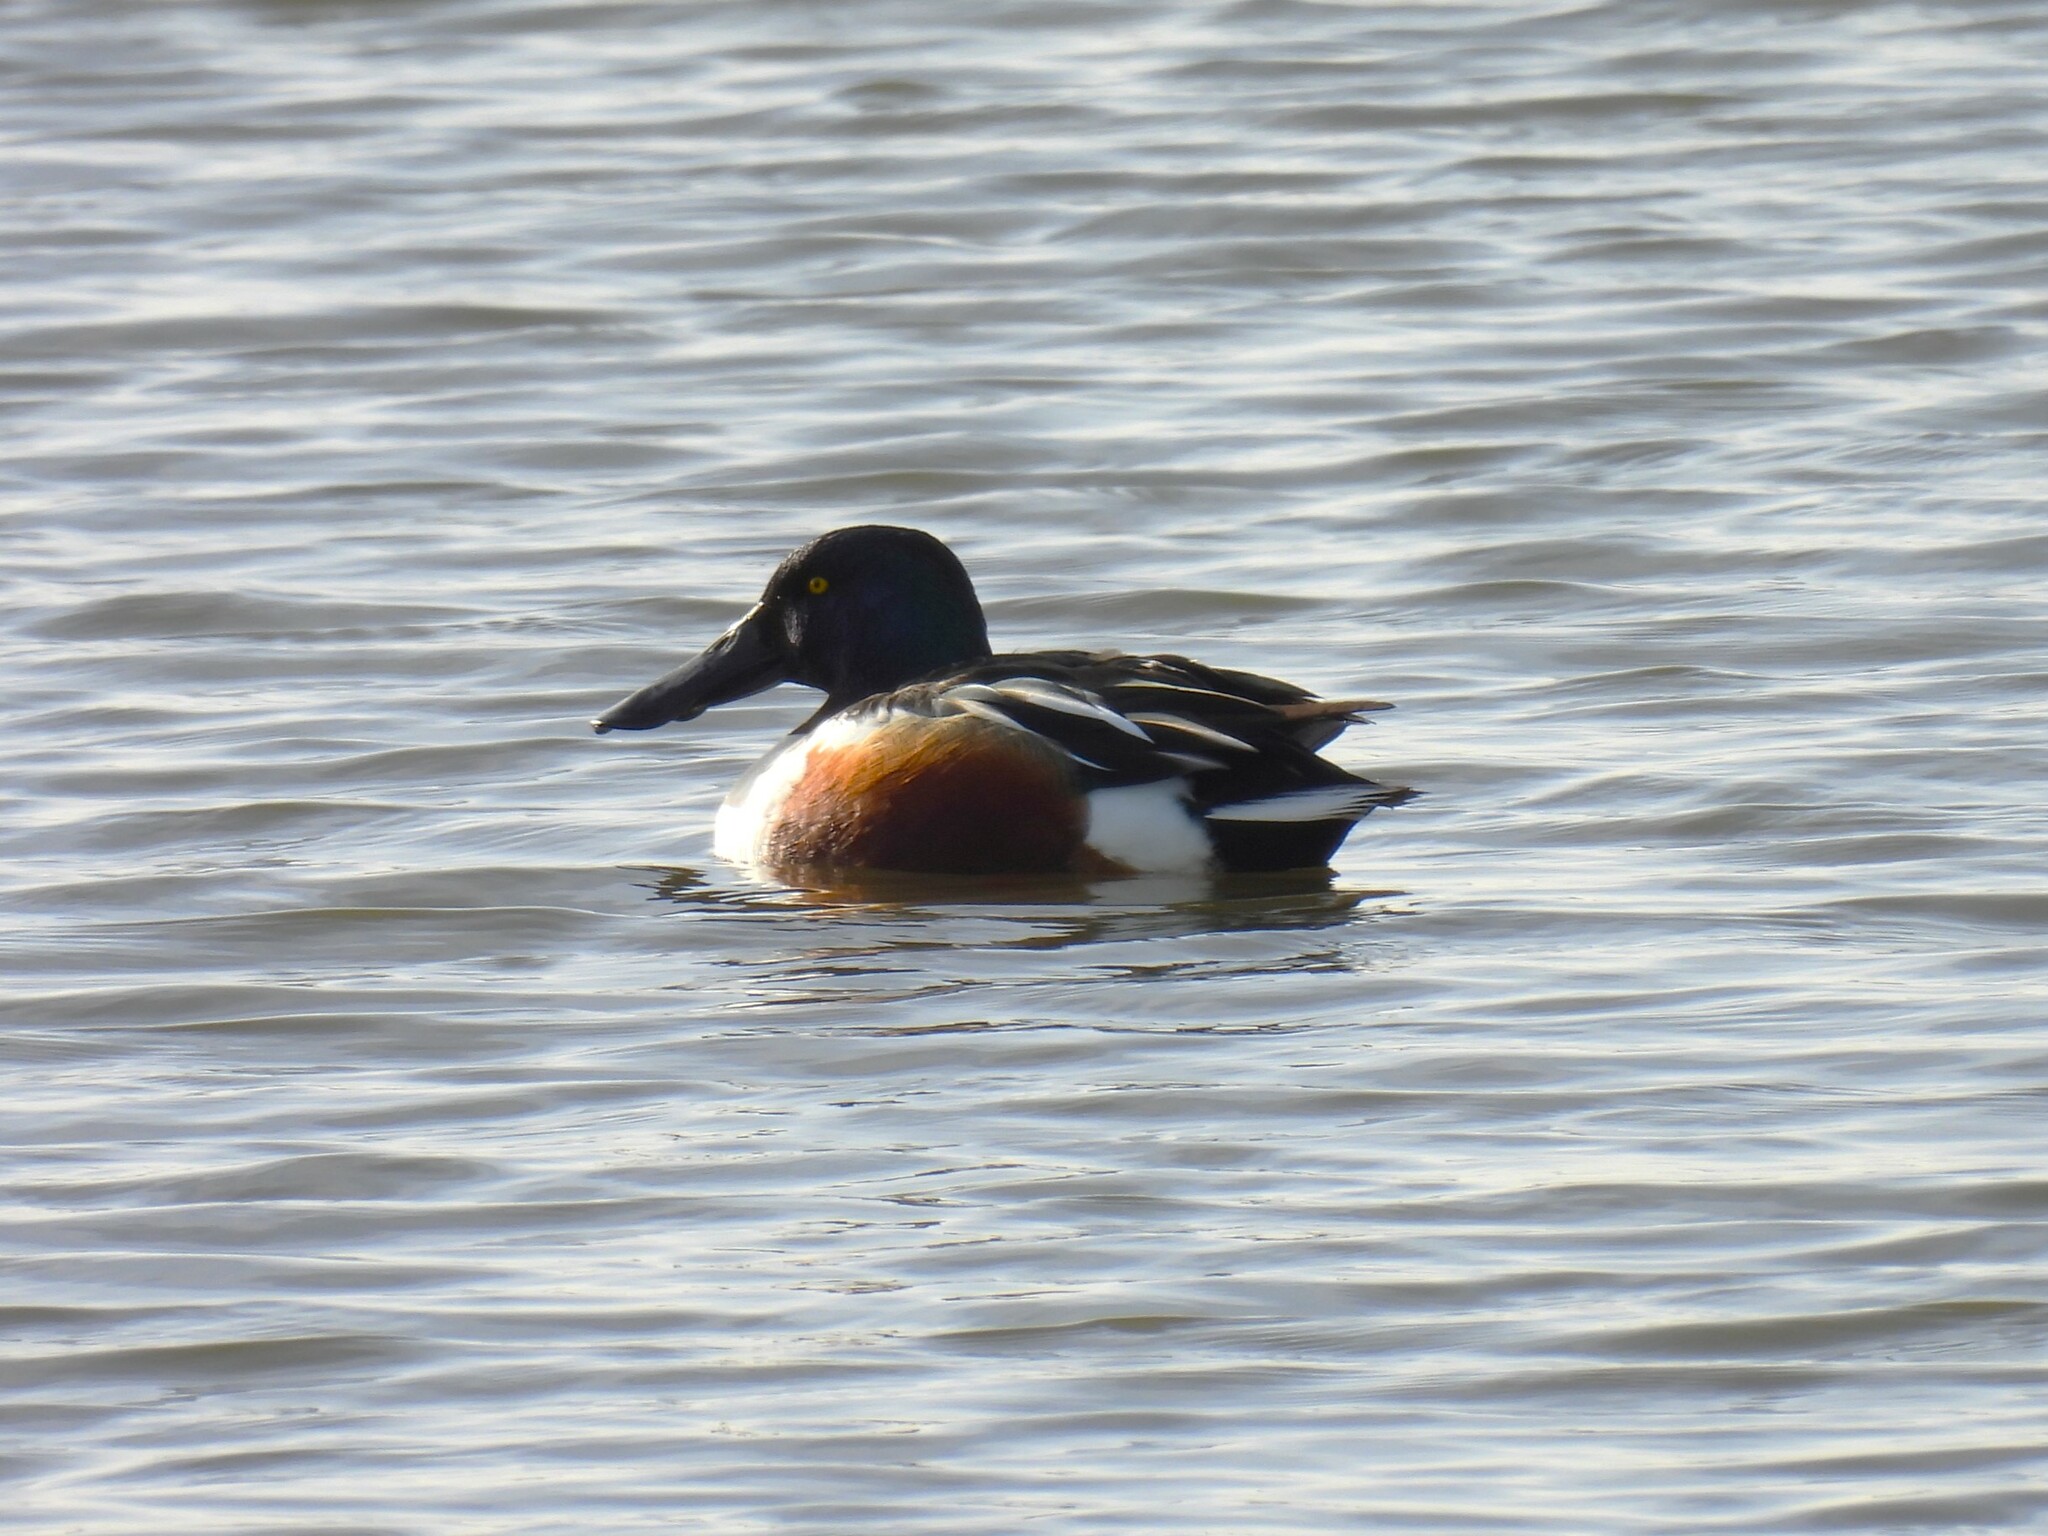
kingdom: Animalia
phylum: Chordata
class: Aves
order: Anseriformes
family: Anatidae
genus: Spatula
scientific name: Spatula clypeata
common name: Northern shoveler
